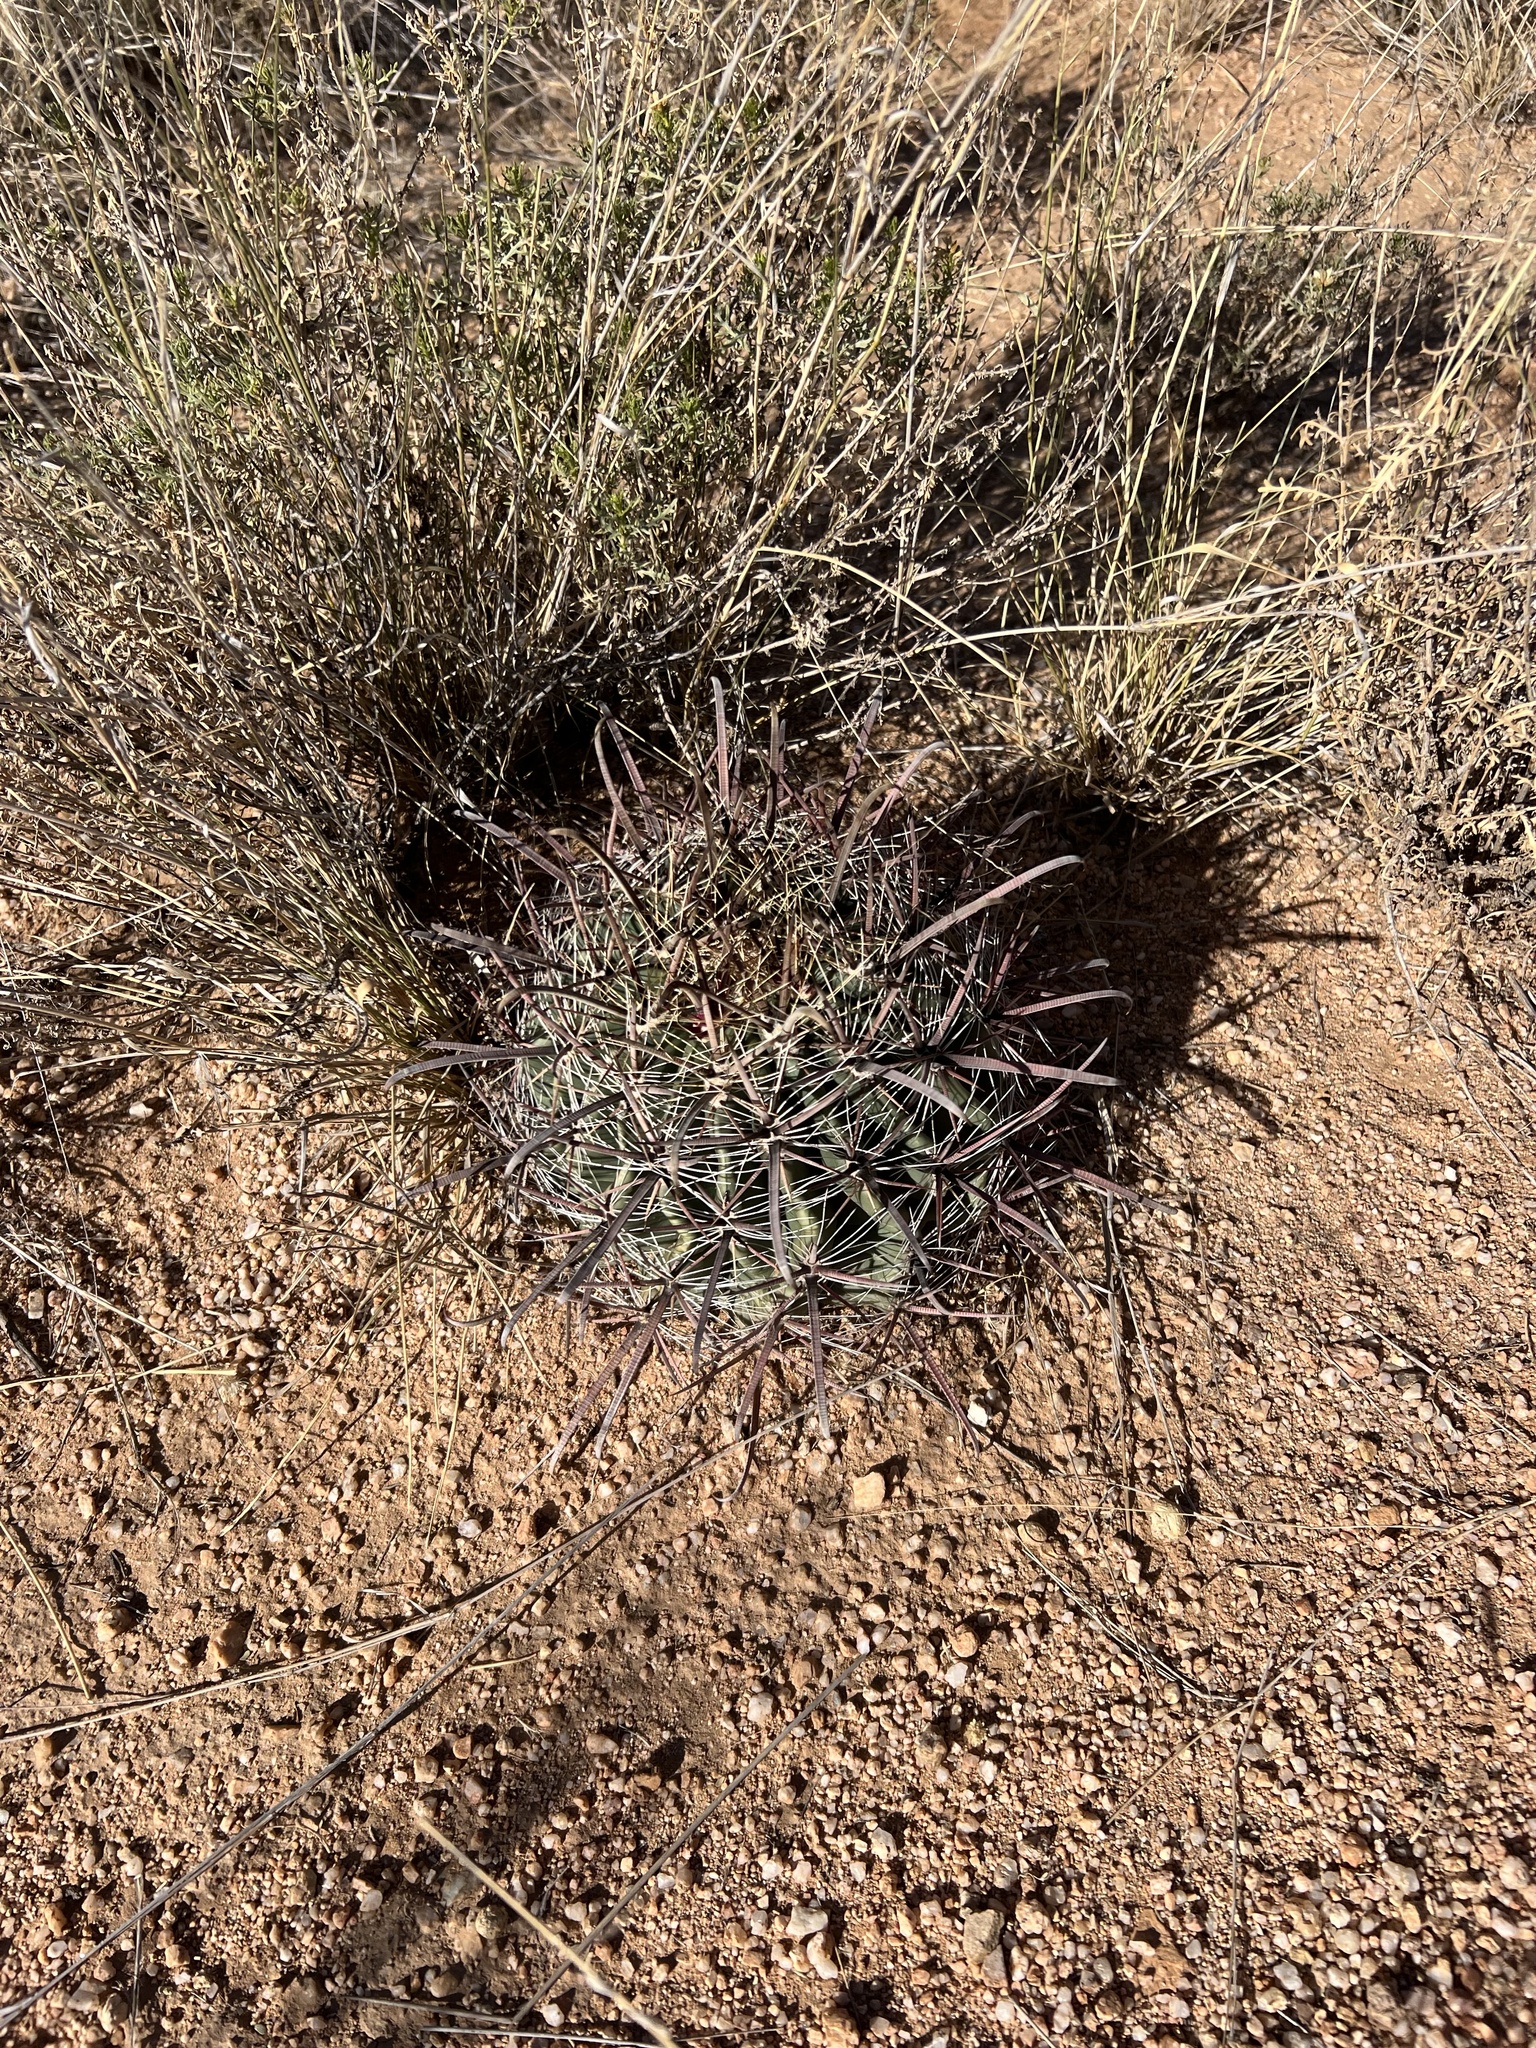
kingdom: Plantae
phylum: Tracheophyta
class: Magnoliopsida
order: Caryophyllales
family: Cactaceae
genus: Ferocactus
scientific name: Ferocactus wislizeni
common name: Candy barrel cactus
